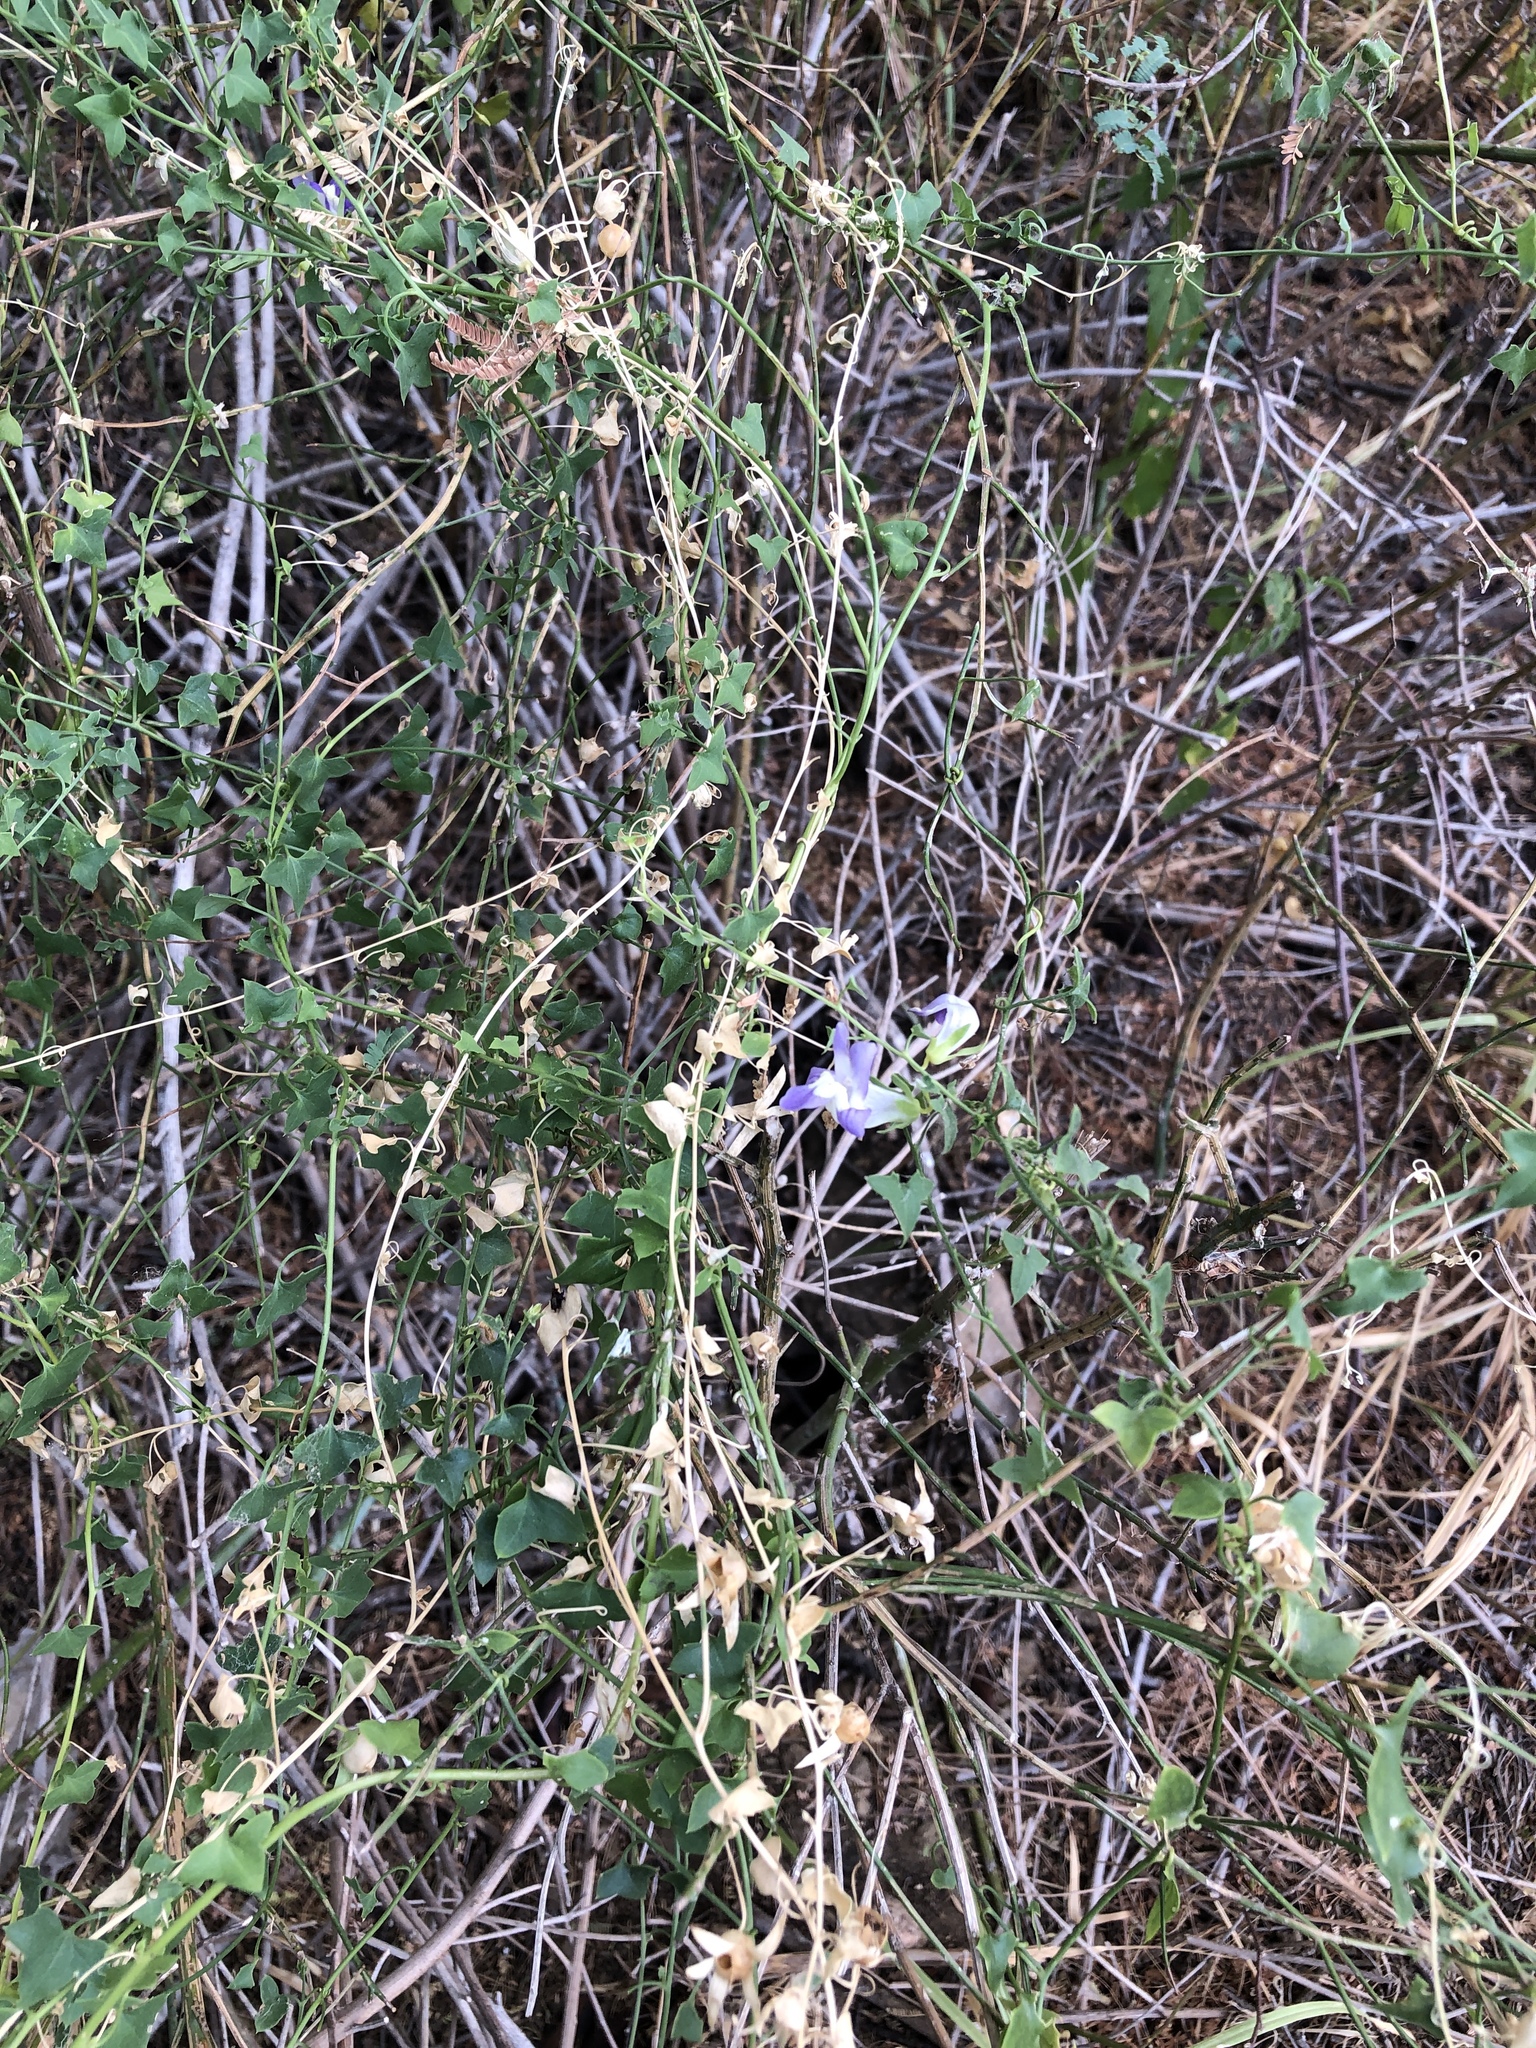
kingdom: Plantae
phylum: Tracheophyta
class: Magnoliopsida
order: Lamiales
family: Plantaginaceae
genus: Maurandella
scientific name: Maurandella antirrhiniflora
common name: Violet twining-snapdragon
